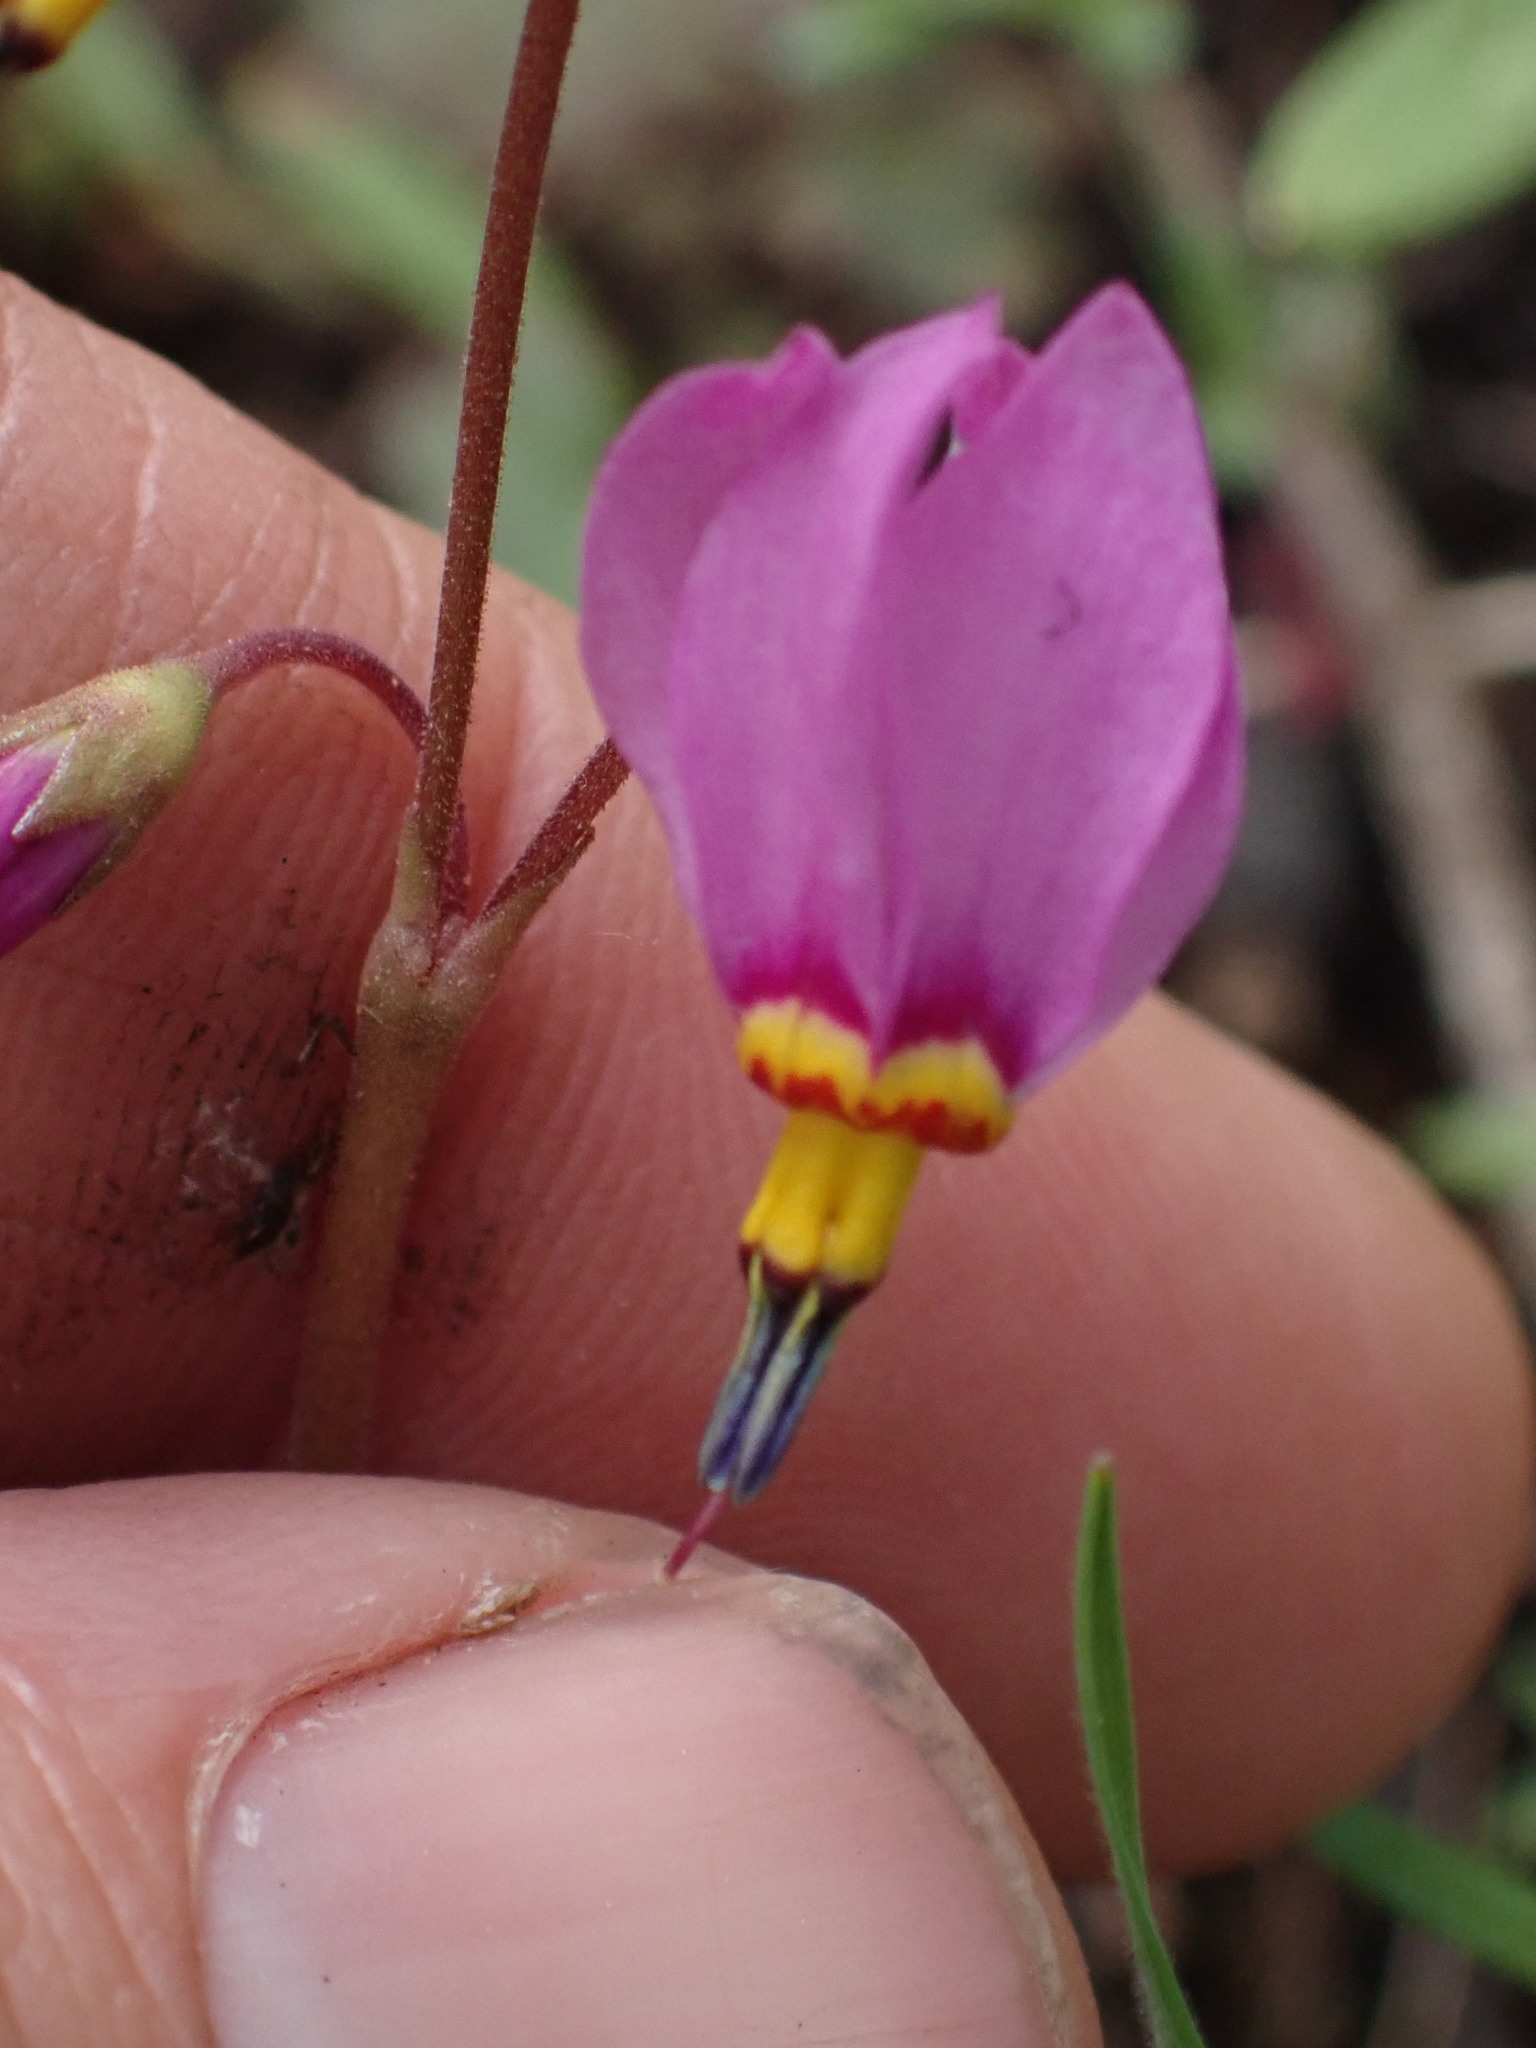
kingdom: Plantae
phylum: Tracheophyta
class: Magnoliopsida
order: Ericales
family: Primulaceae
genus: Dodecatheon
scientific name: Dodecatheon pulchellum
